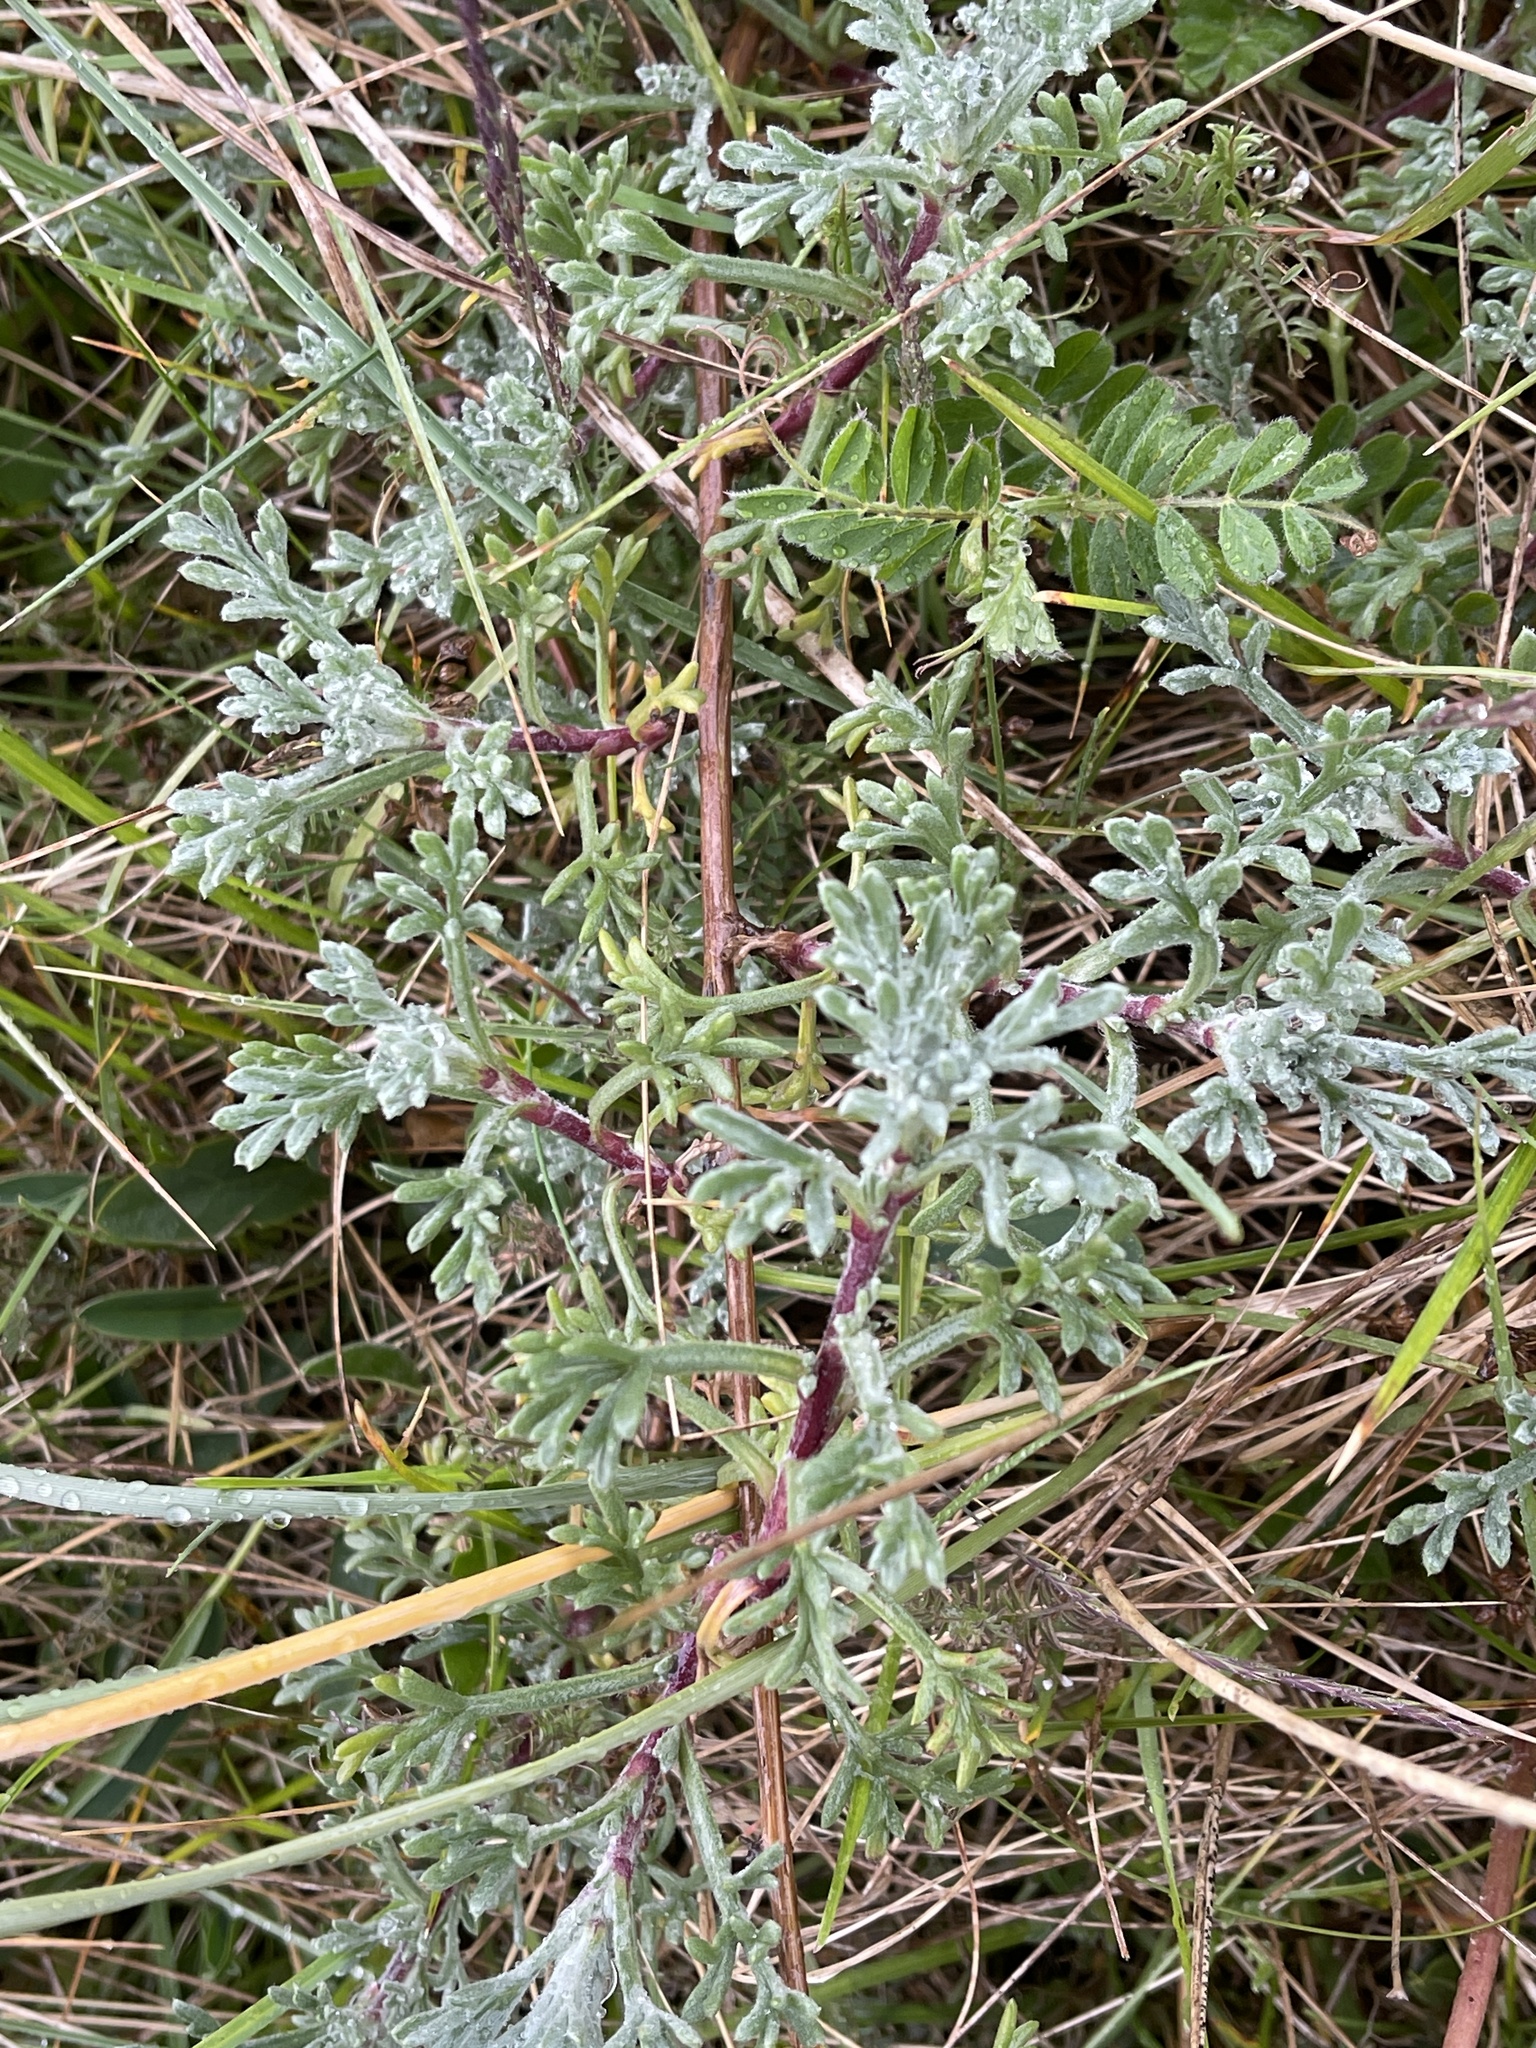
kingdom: Plantae
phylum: Tracheophyta
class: Magnoliopsida
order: Asterales
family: Asteraceae
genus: Artemisia
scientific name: Artemisia crithmifolia
